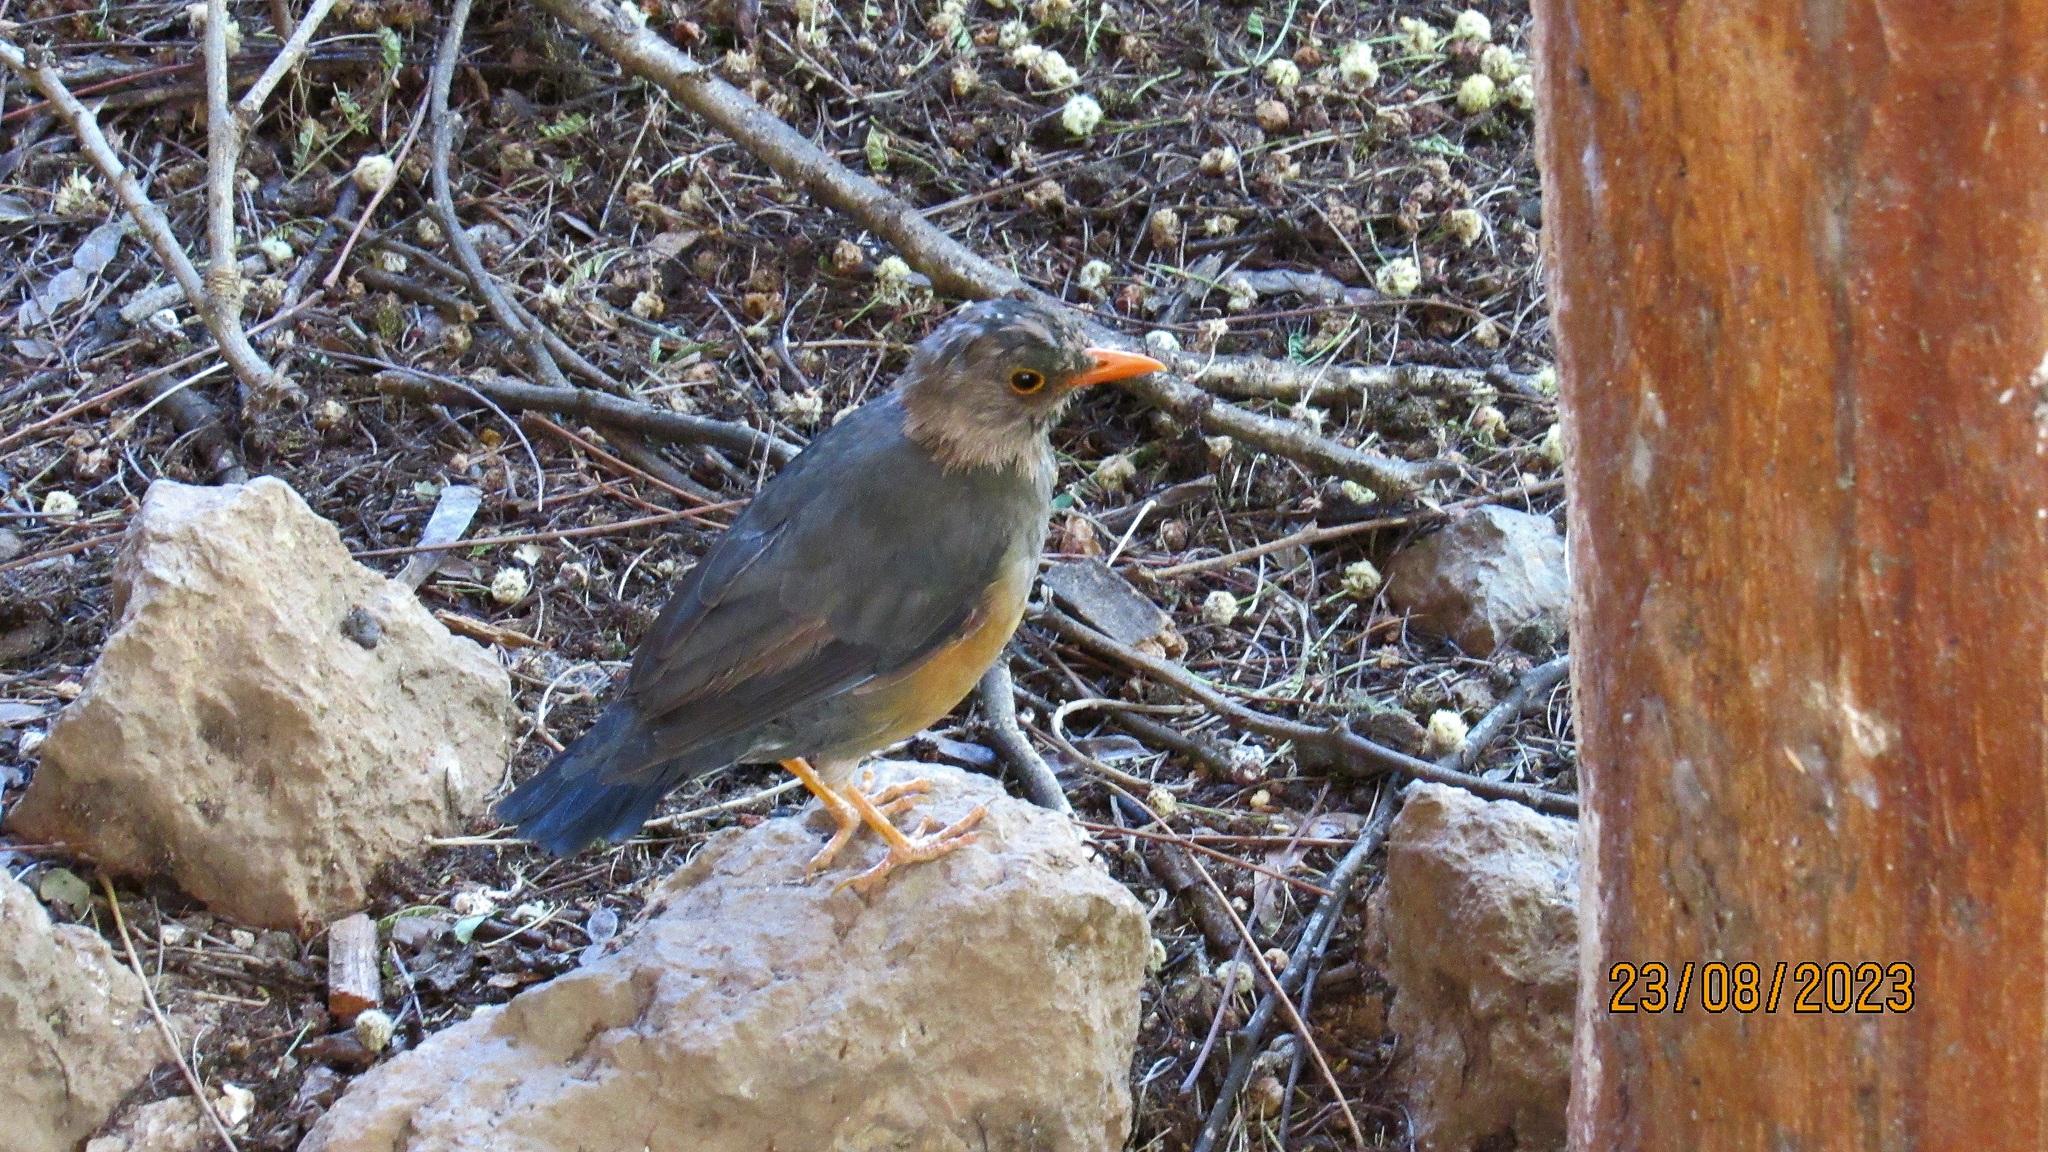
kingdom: Animalia
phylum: Chordata
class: Aves
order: Passeriformes
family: Turdidae
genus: Turdus
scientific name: Turdus abyssinicus
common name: Abyssinian thrush
